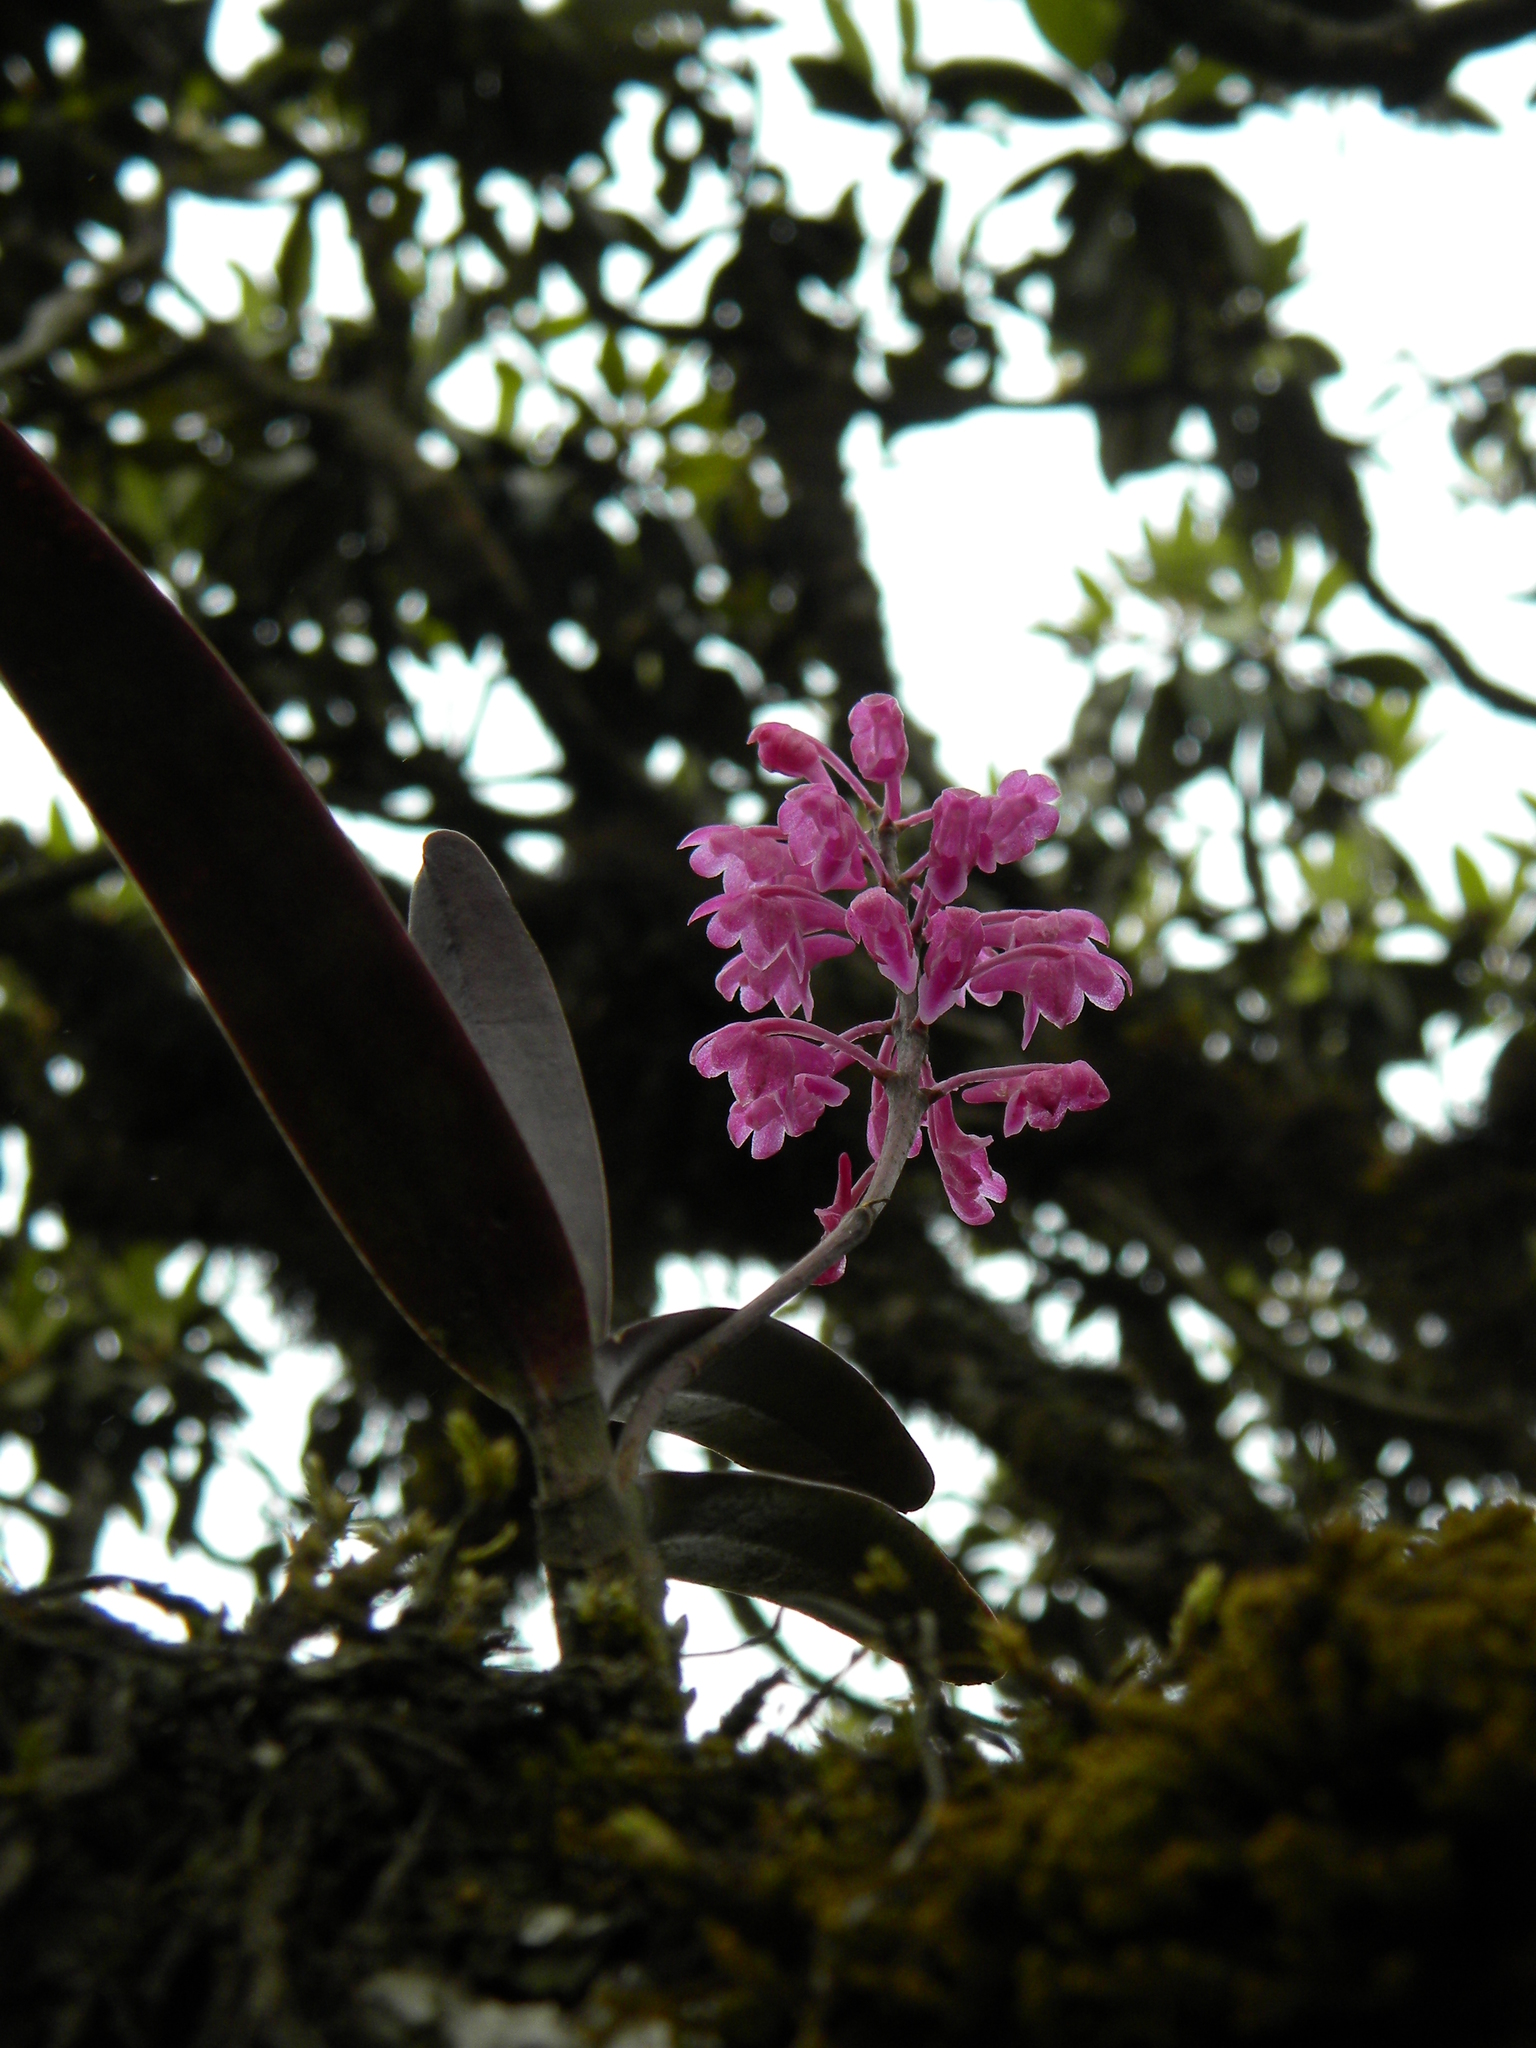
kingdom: Plantae
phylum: Tracheophyta
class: Liliopsida
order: Asparagales
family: Orchidaceae
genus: Aerides
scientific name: Aerides ringens
